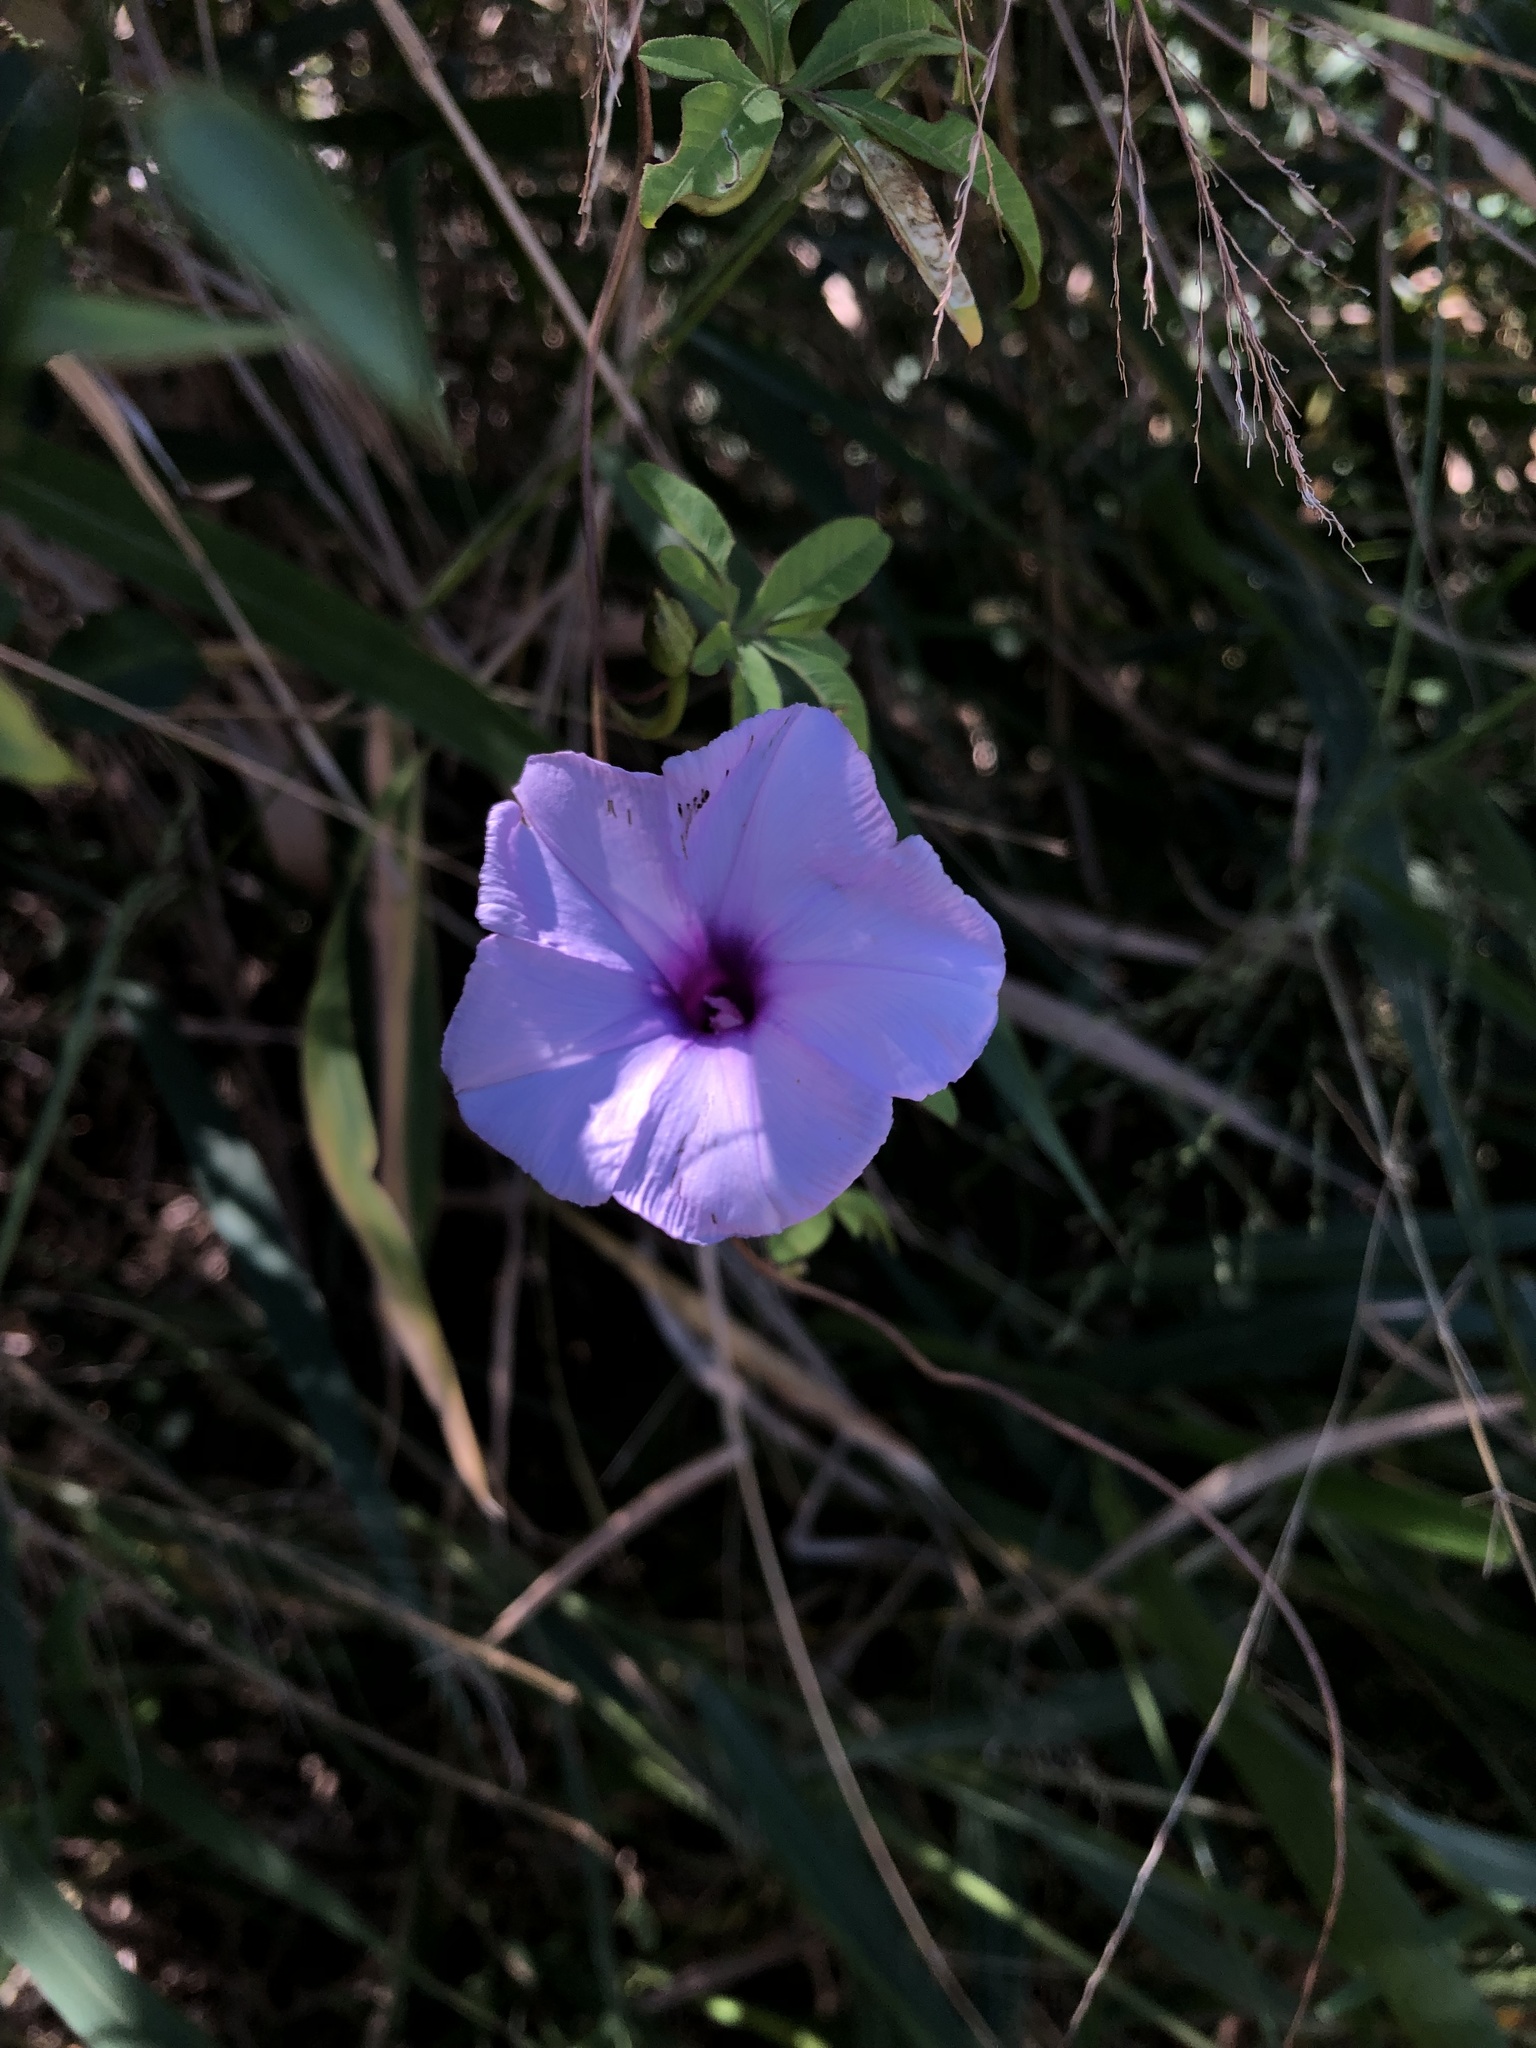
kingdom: Plantae
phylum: Tracheophyta
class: Magnoliopsida
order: Solanales
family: Convolvulaceae
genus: Ipomoea
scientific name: Ipomoea cairica
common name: Mile a minute vine
